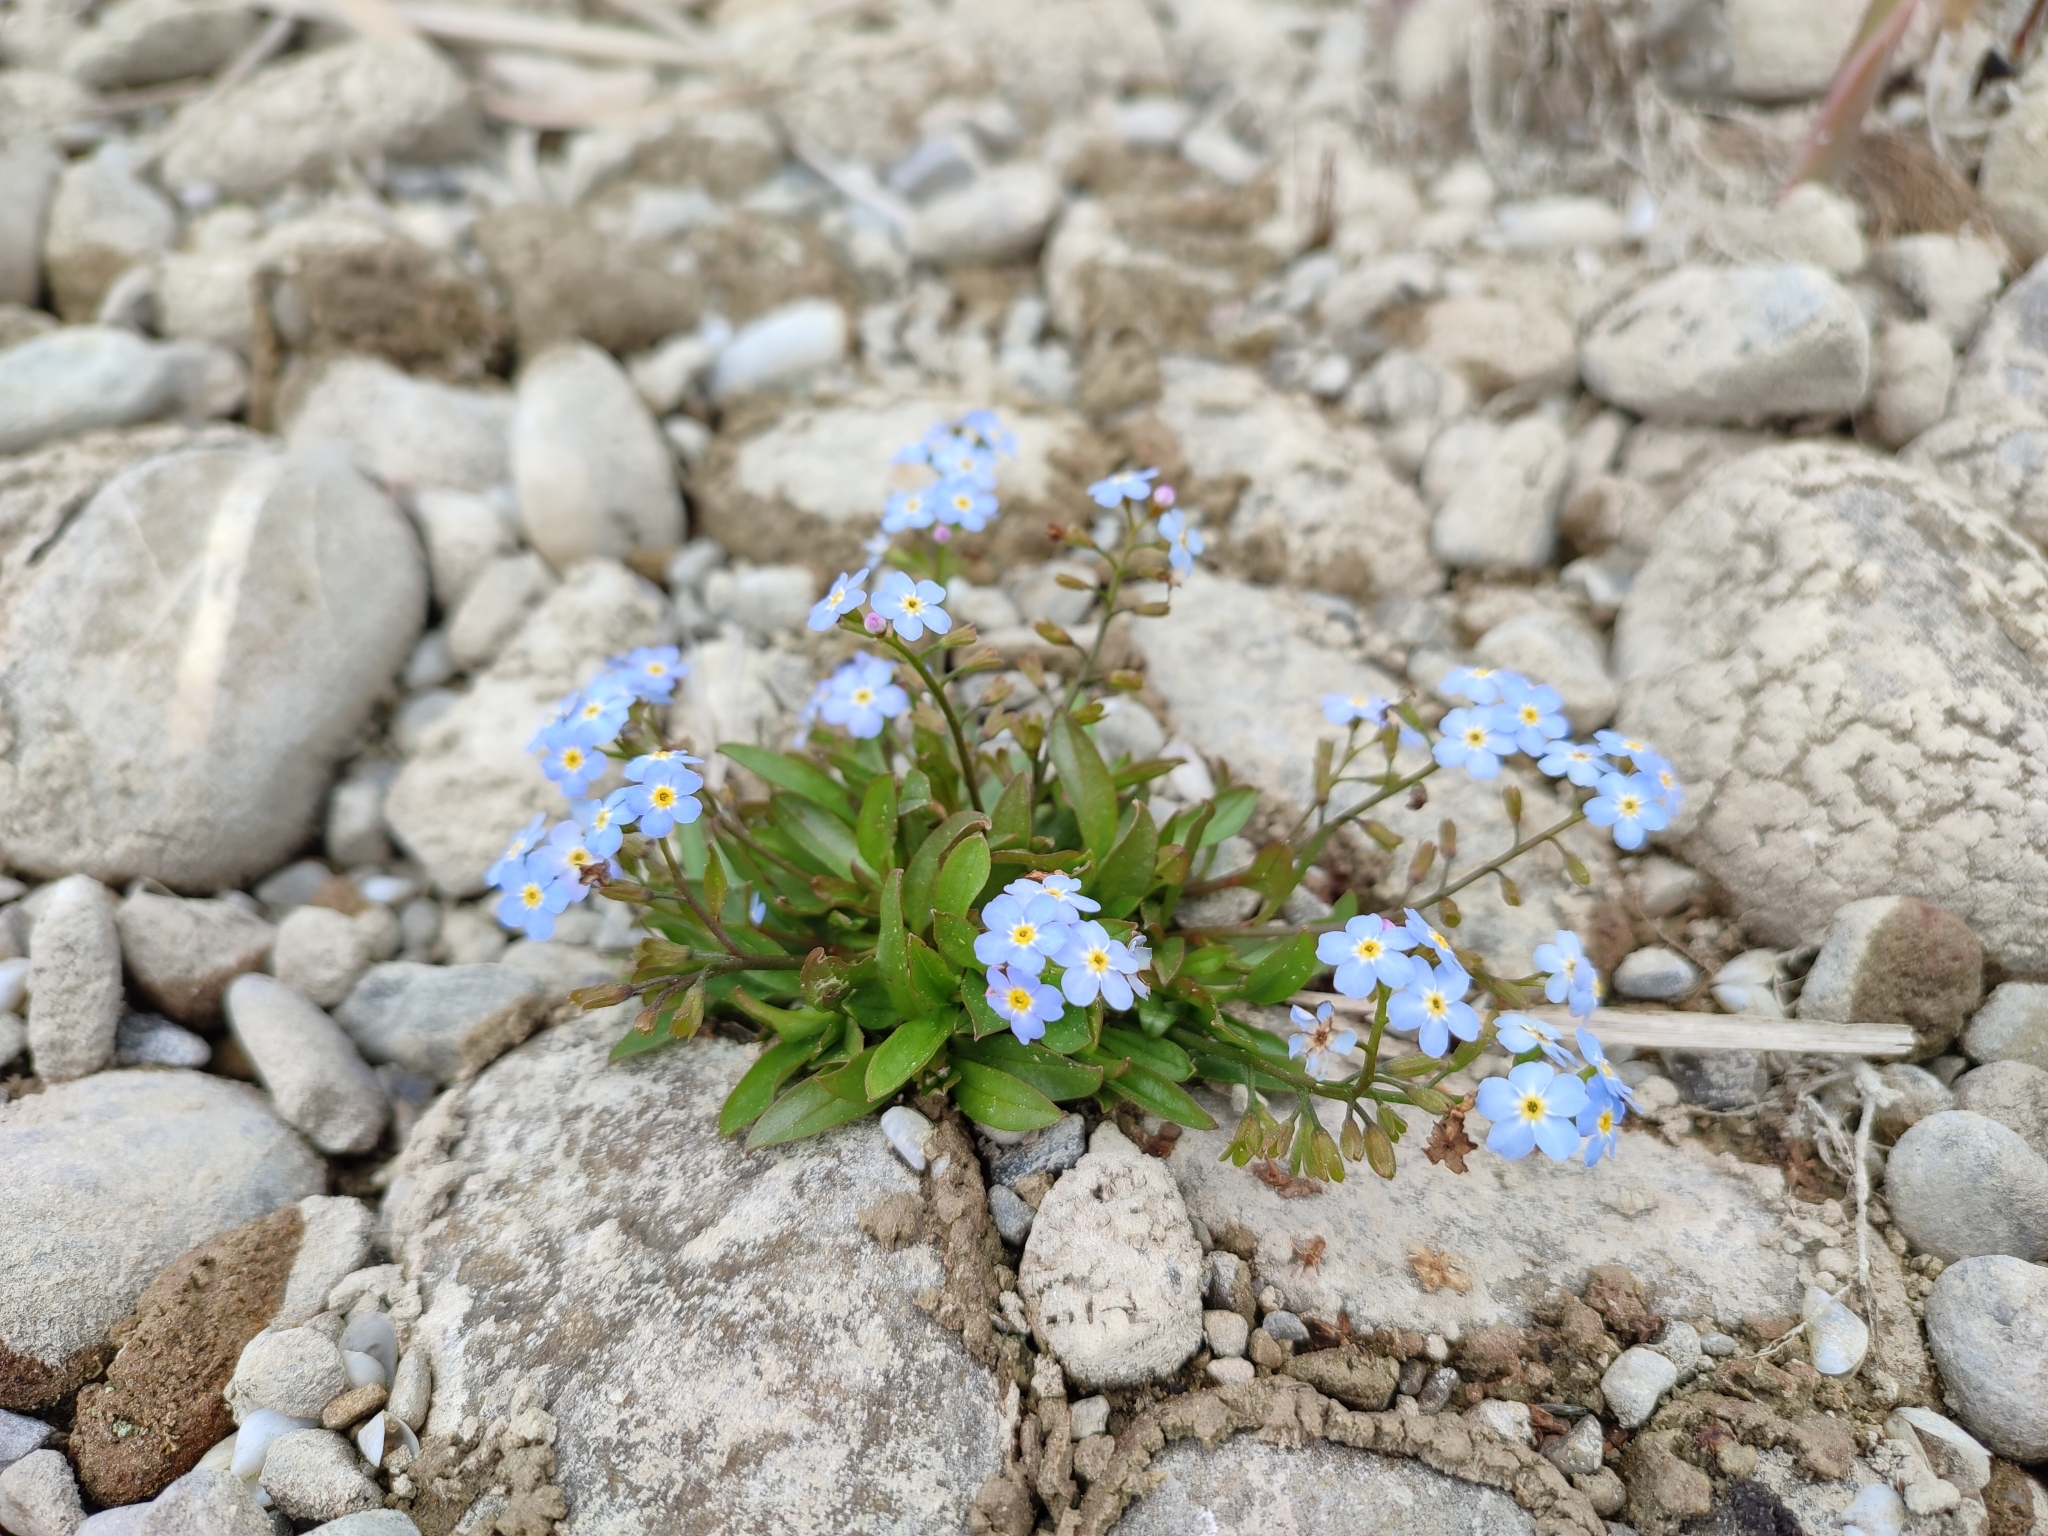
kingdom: Plantae
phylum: Tracheophyta
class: Magnoliopsida
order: Boraginales
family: Boraginaceae
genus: Myosotis
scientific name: Myosotis rehsteineri
